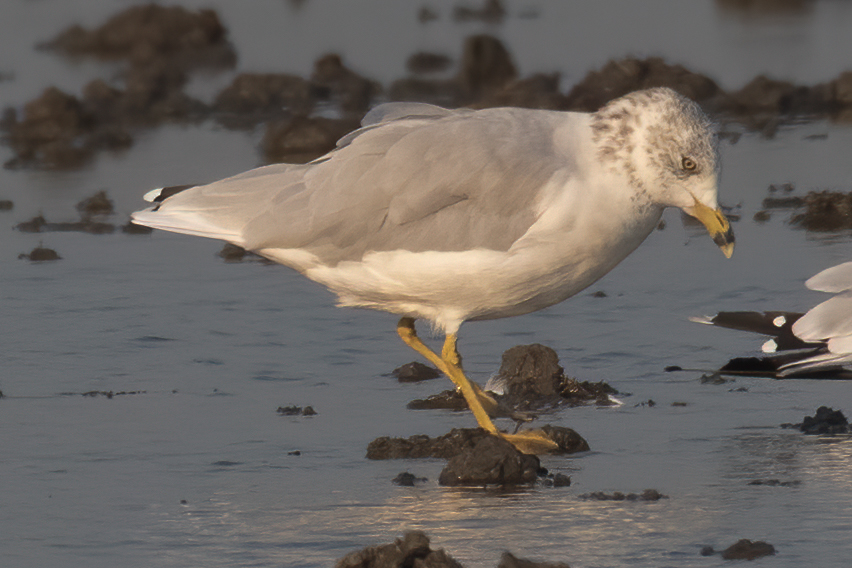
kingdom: Animalia
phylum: Chordata
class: Aves
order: Charadriiformes
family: Laridae
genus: Larus
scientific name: Larus delawarensis
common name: Ring-billed gull
